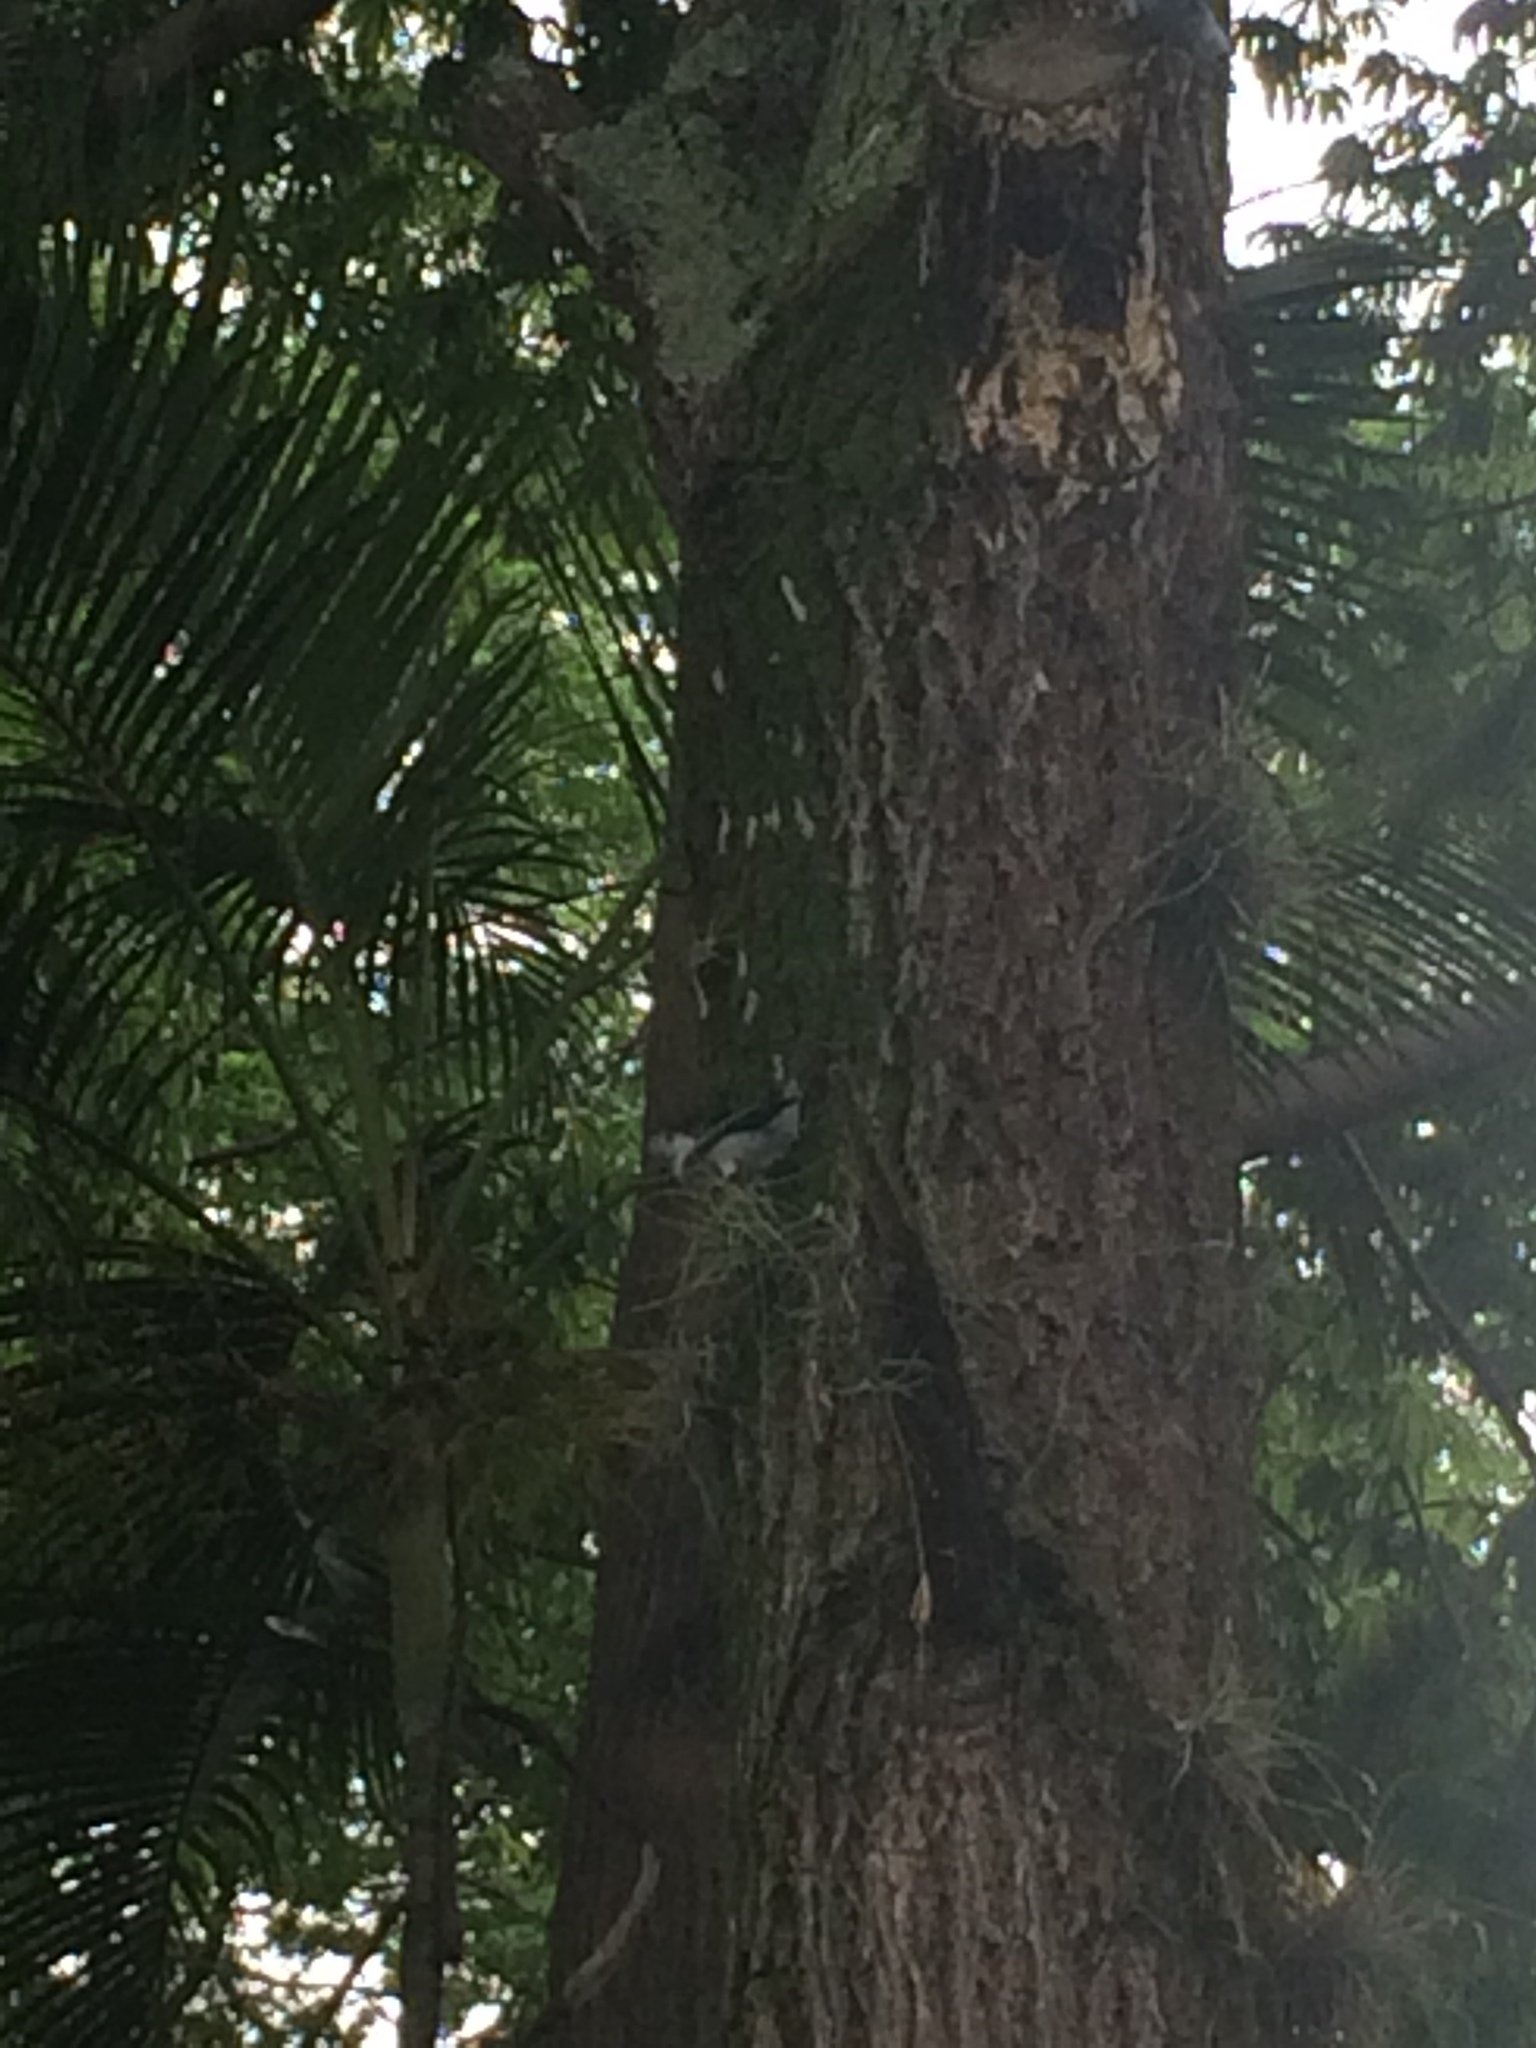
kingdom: Animalia
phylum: Chordata
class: Aves
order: Passeriformes
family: Thraupidae
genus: Thraupis
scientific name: Thraupis episcopus
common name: Blue-grey tanager
